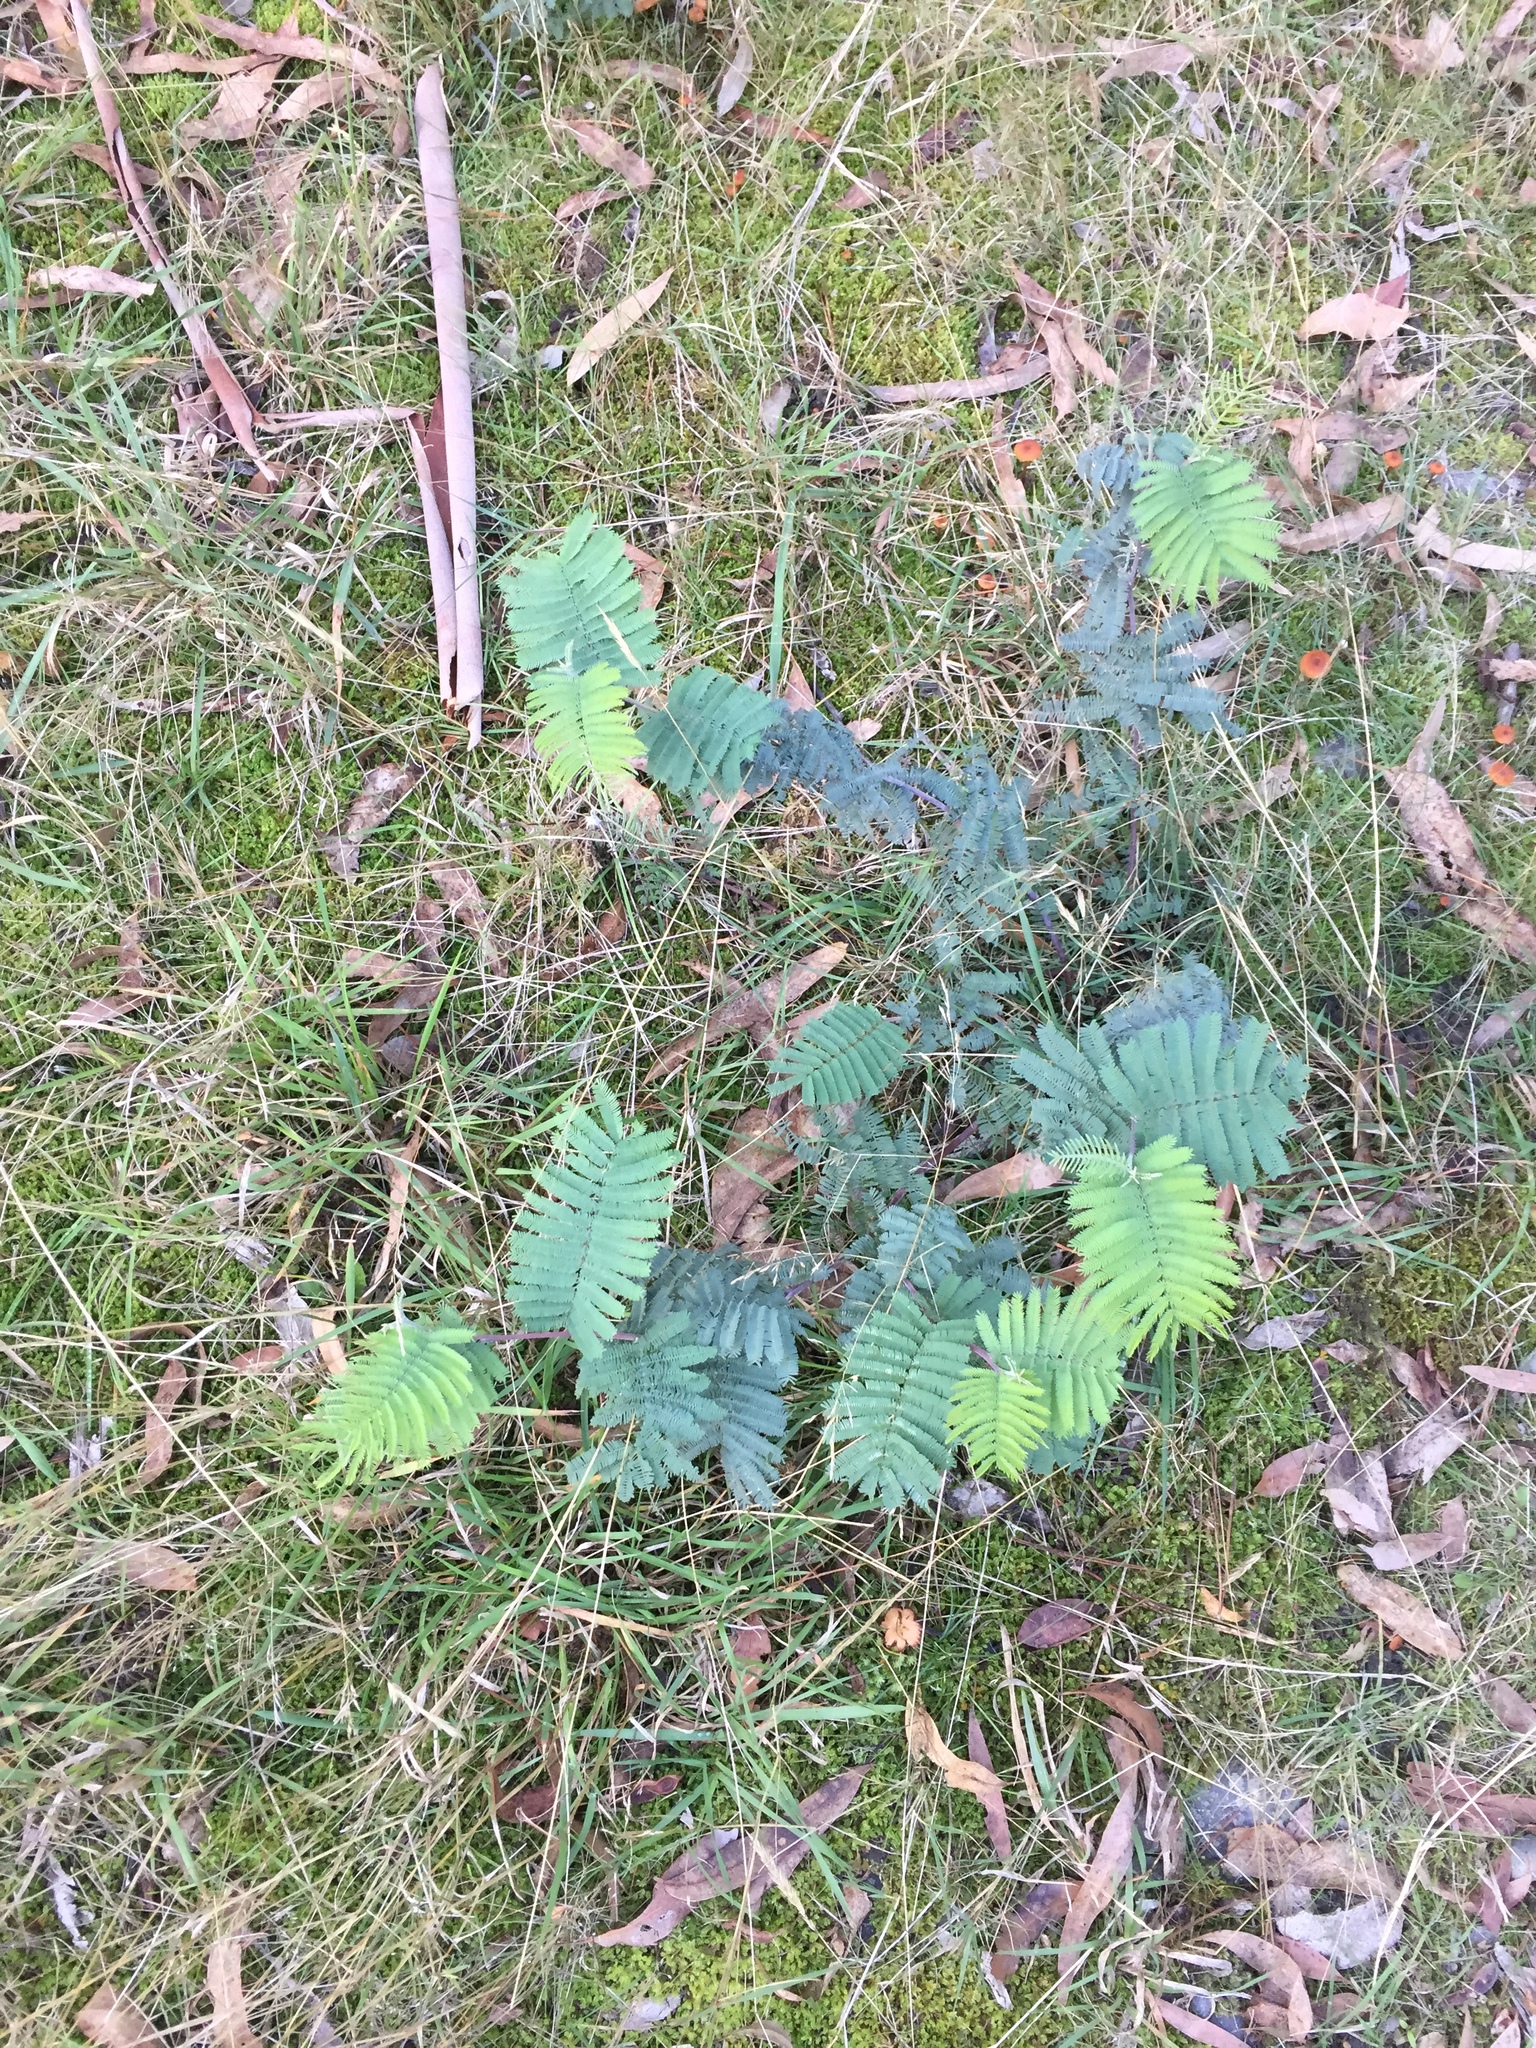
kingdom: Plantae
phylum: Tracheophyta
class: Magnoliopsida
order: Fabales
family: Fabaceae
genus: Acacia
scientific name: Acacia dealbata
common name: Silver wattle
